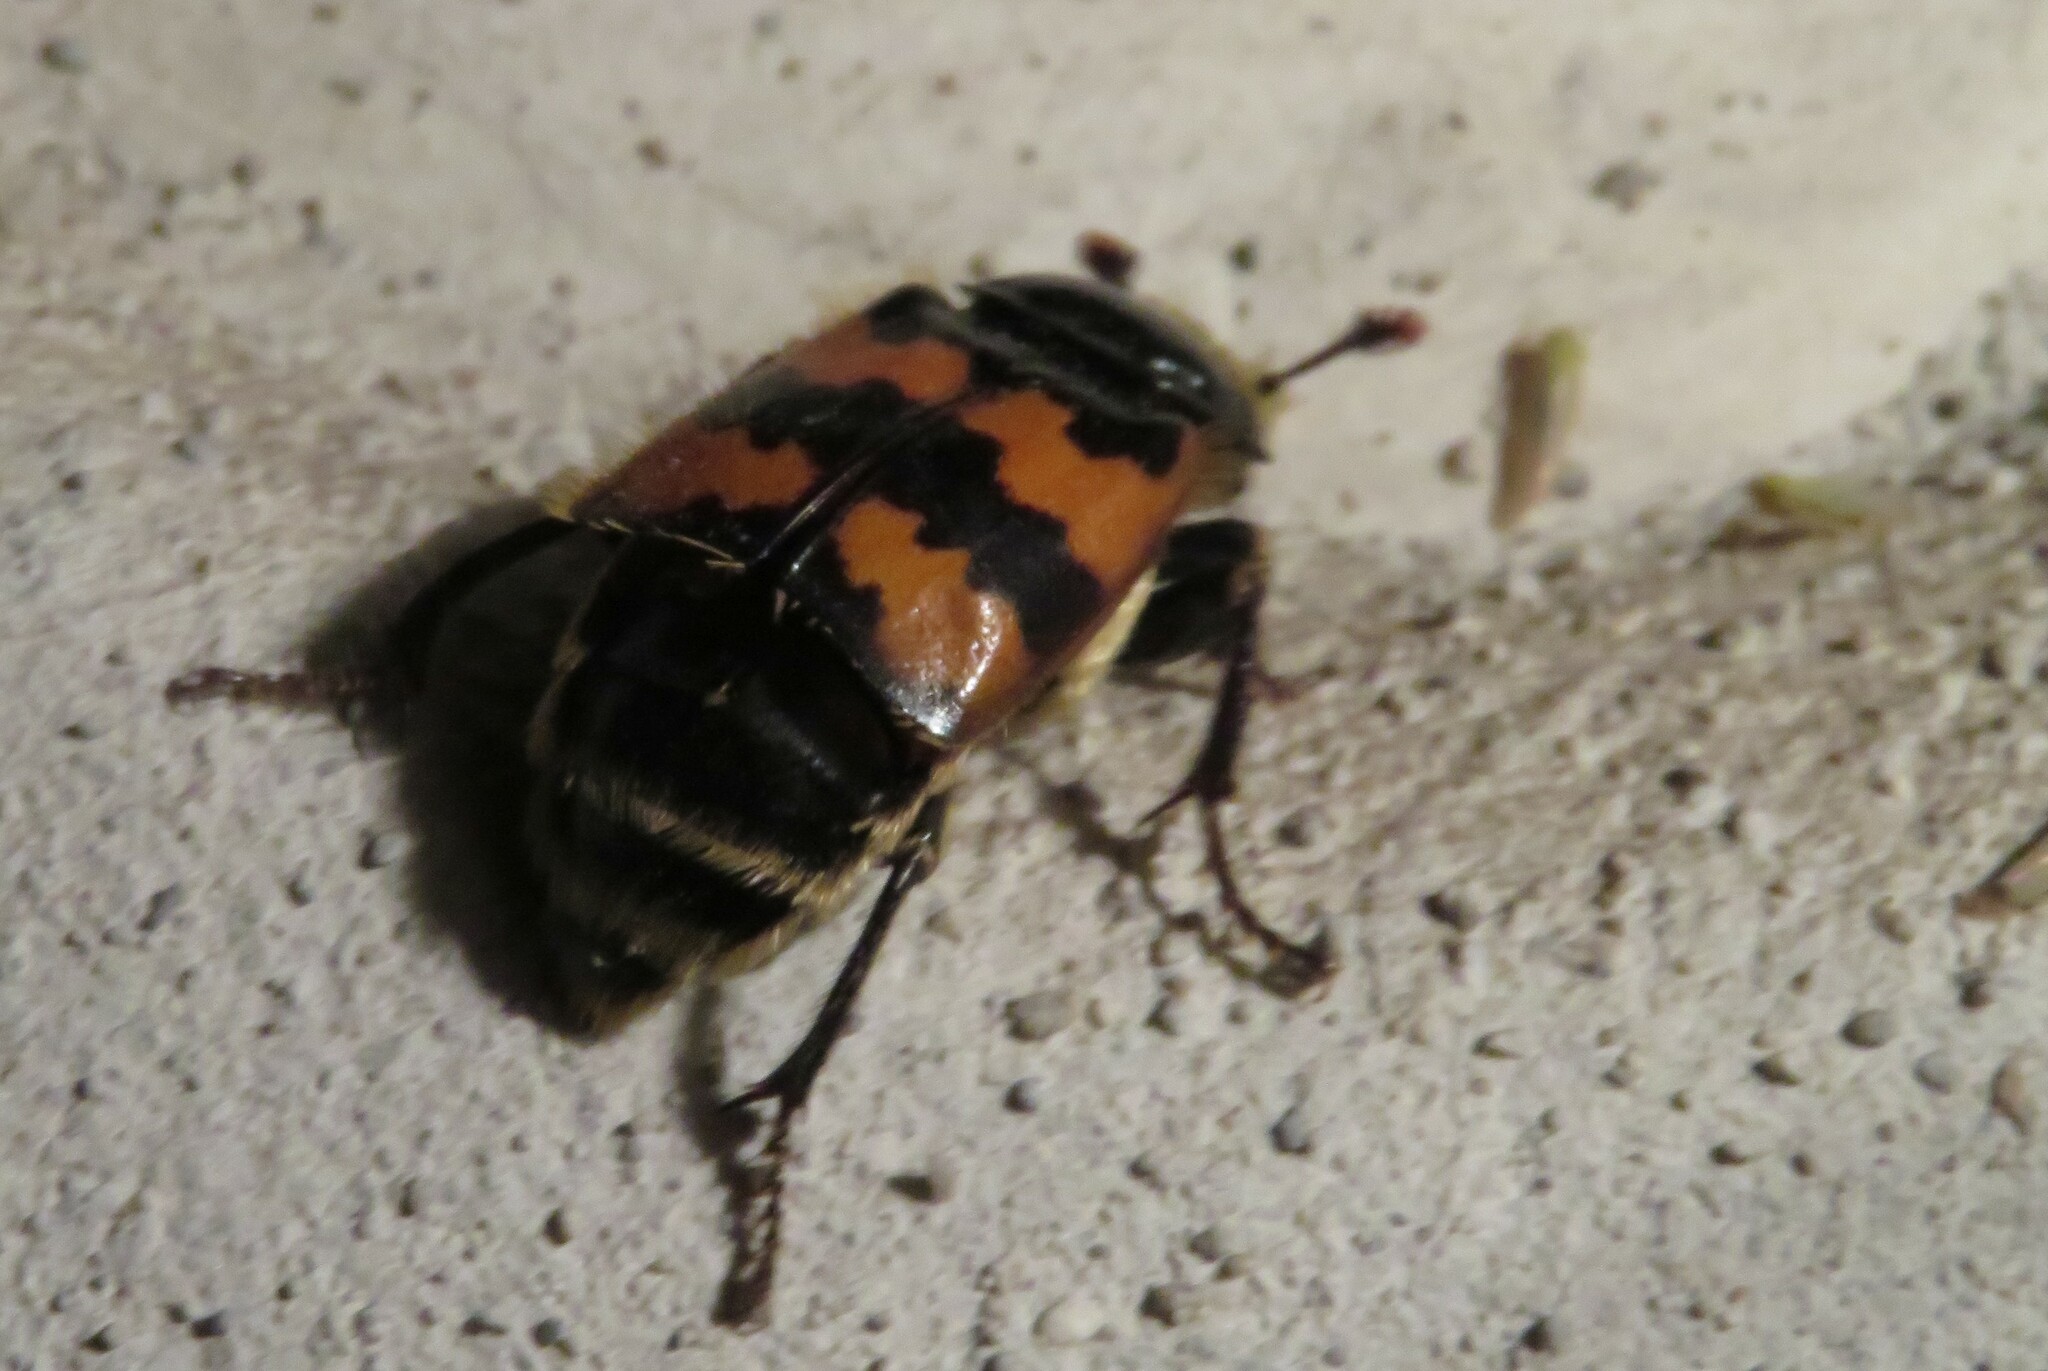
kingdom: Animalia
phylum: Arthropoda
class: Insecta
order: Coleoptera
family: Staphylinidae
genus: Nicrophorus
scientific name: Nicrophorus vespillo
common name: Common burying beetle
